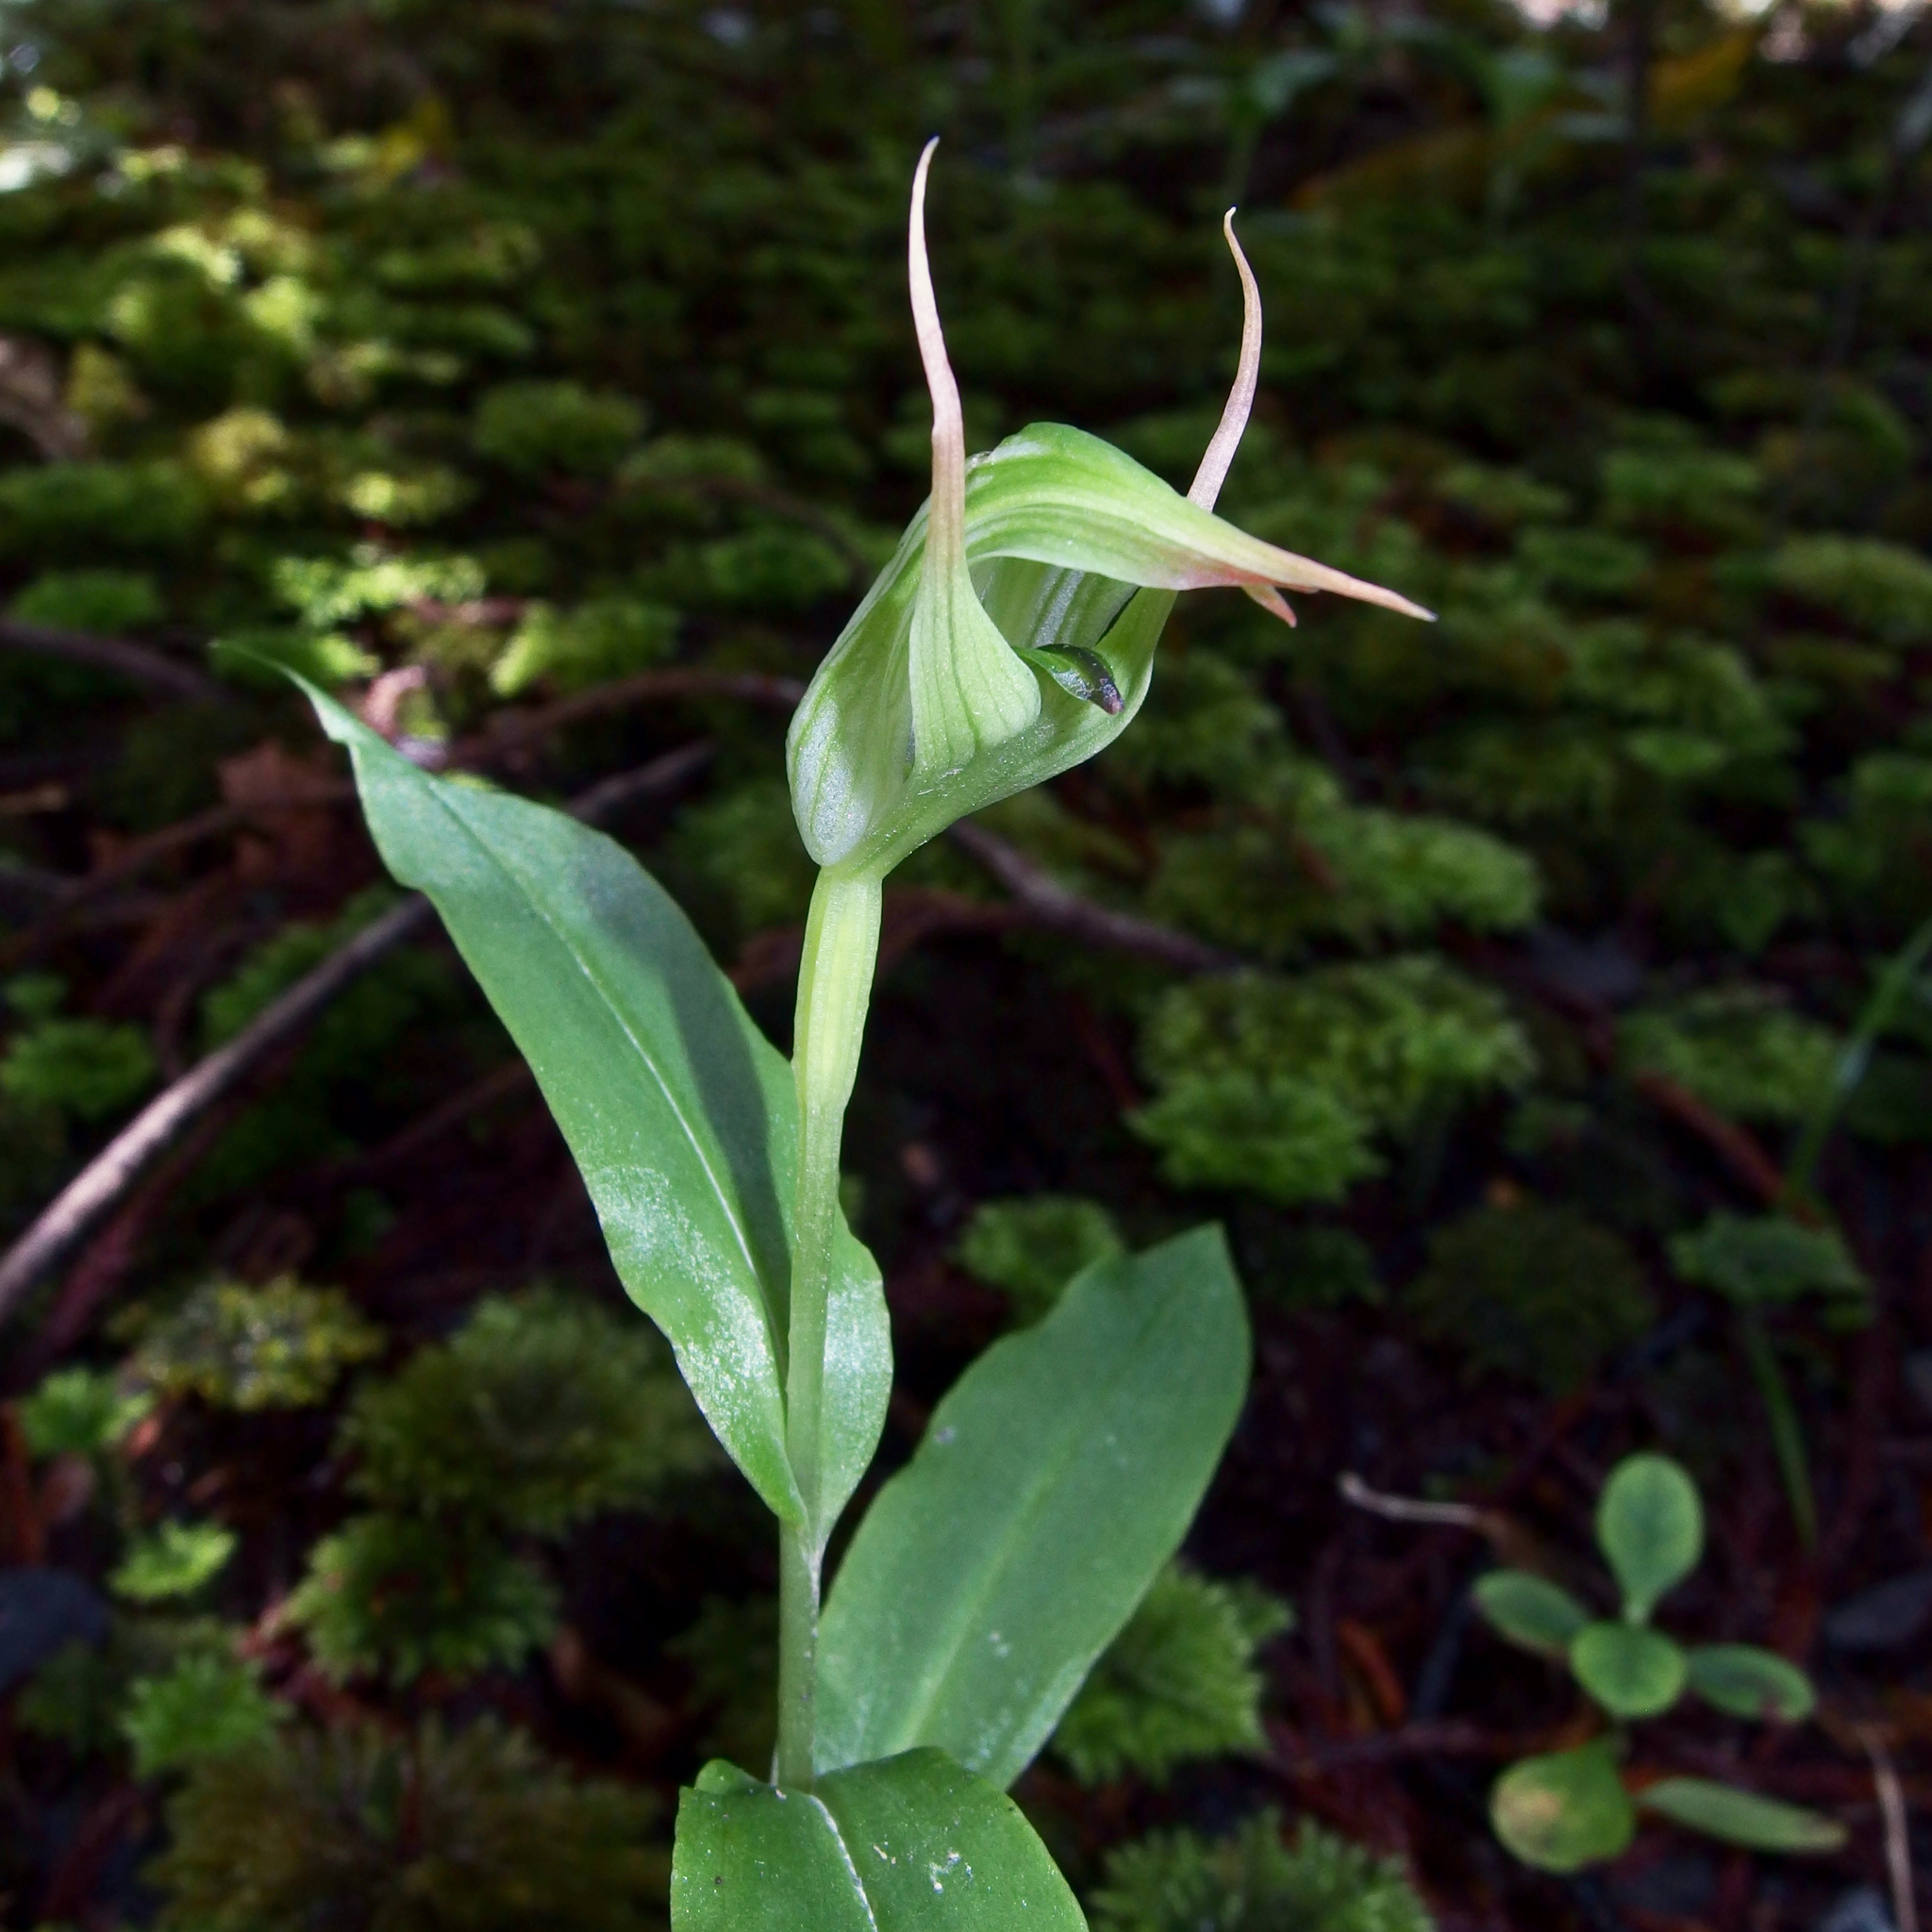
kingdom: Plantae
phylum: Tracheophyta
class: Liliopsida
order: Asparagales
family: Orchidaceae
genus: Pterostylis
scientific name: Pterostylis auriculata
